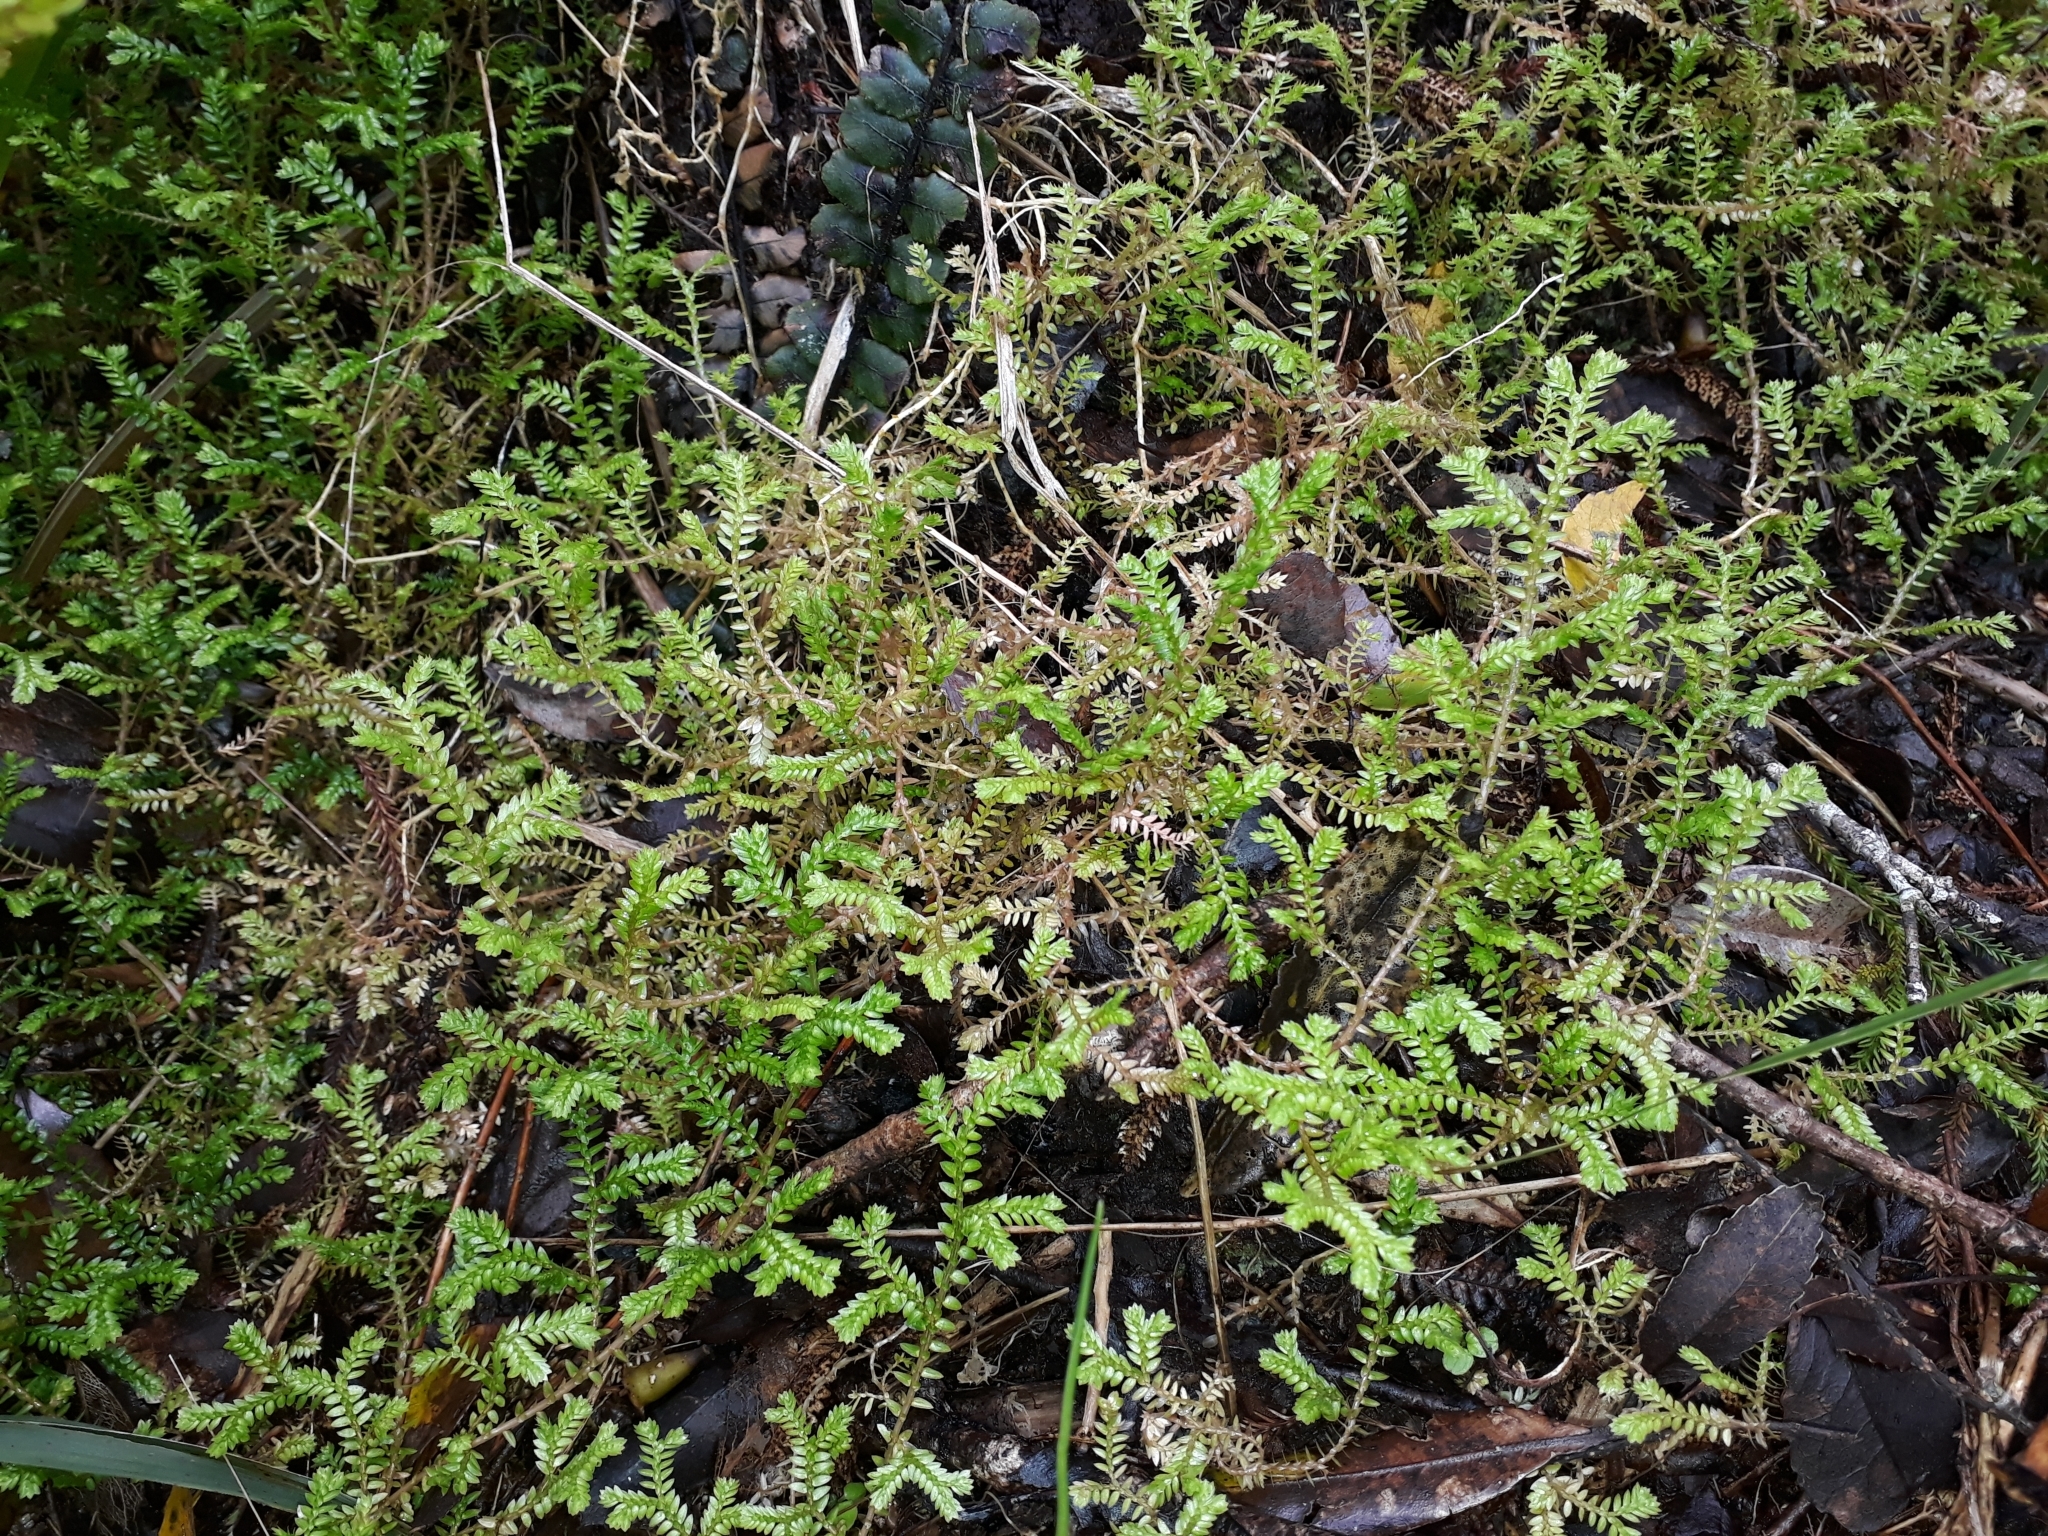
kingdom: Plantae
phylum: Tracheophyta
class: Lycopodiopsida
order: Selaginellales
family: Selaginellaceae
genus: Selaginella
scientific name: Selaginella kraussiana
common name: Krauss' spikemoss
